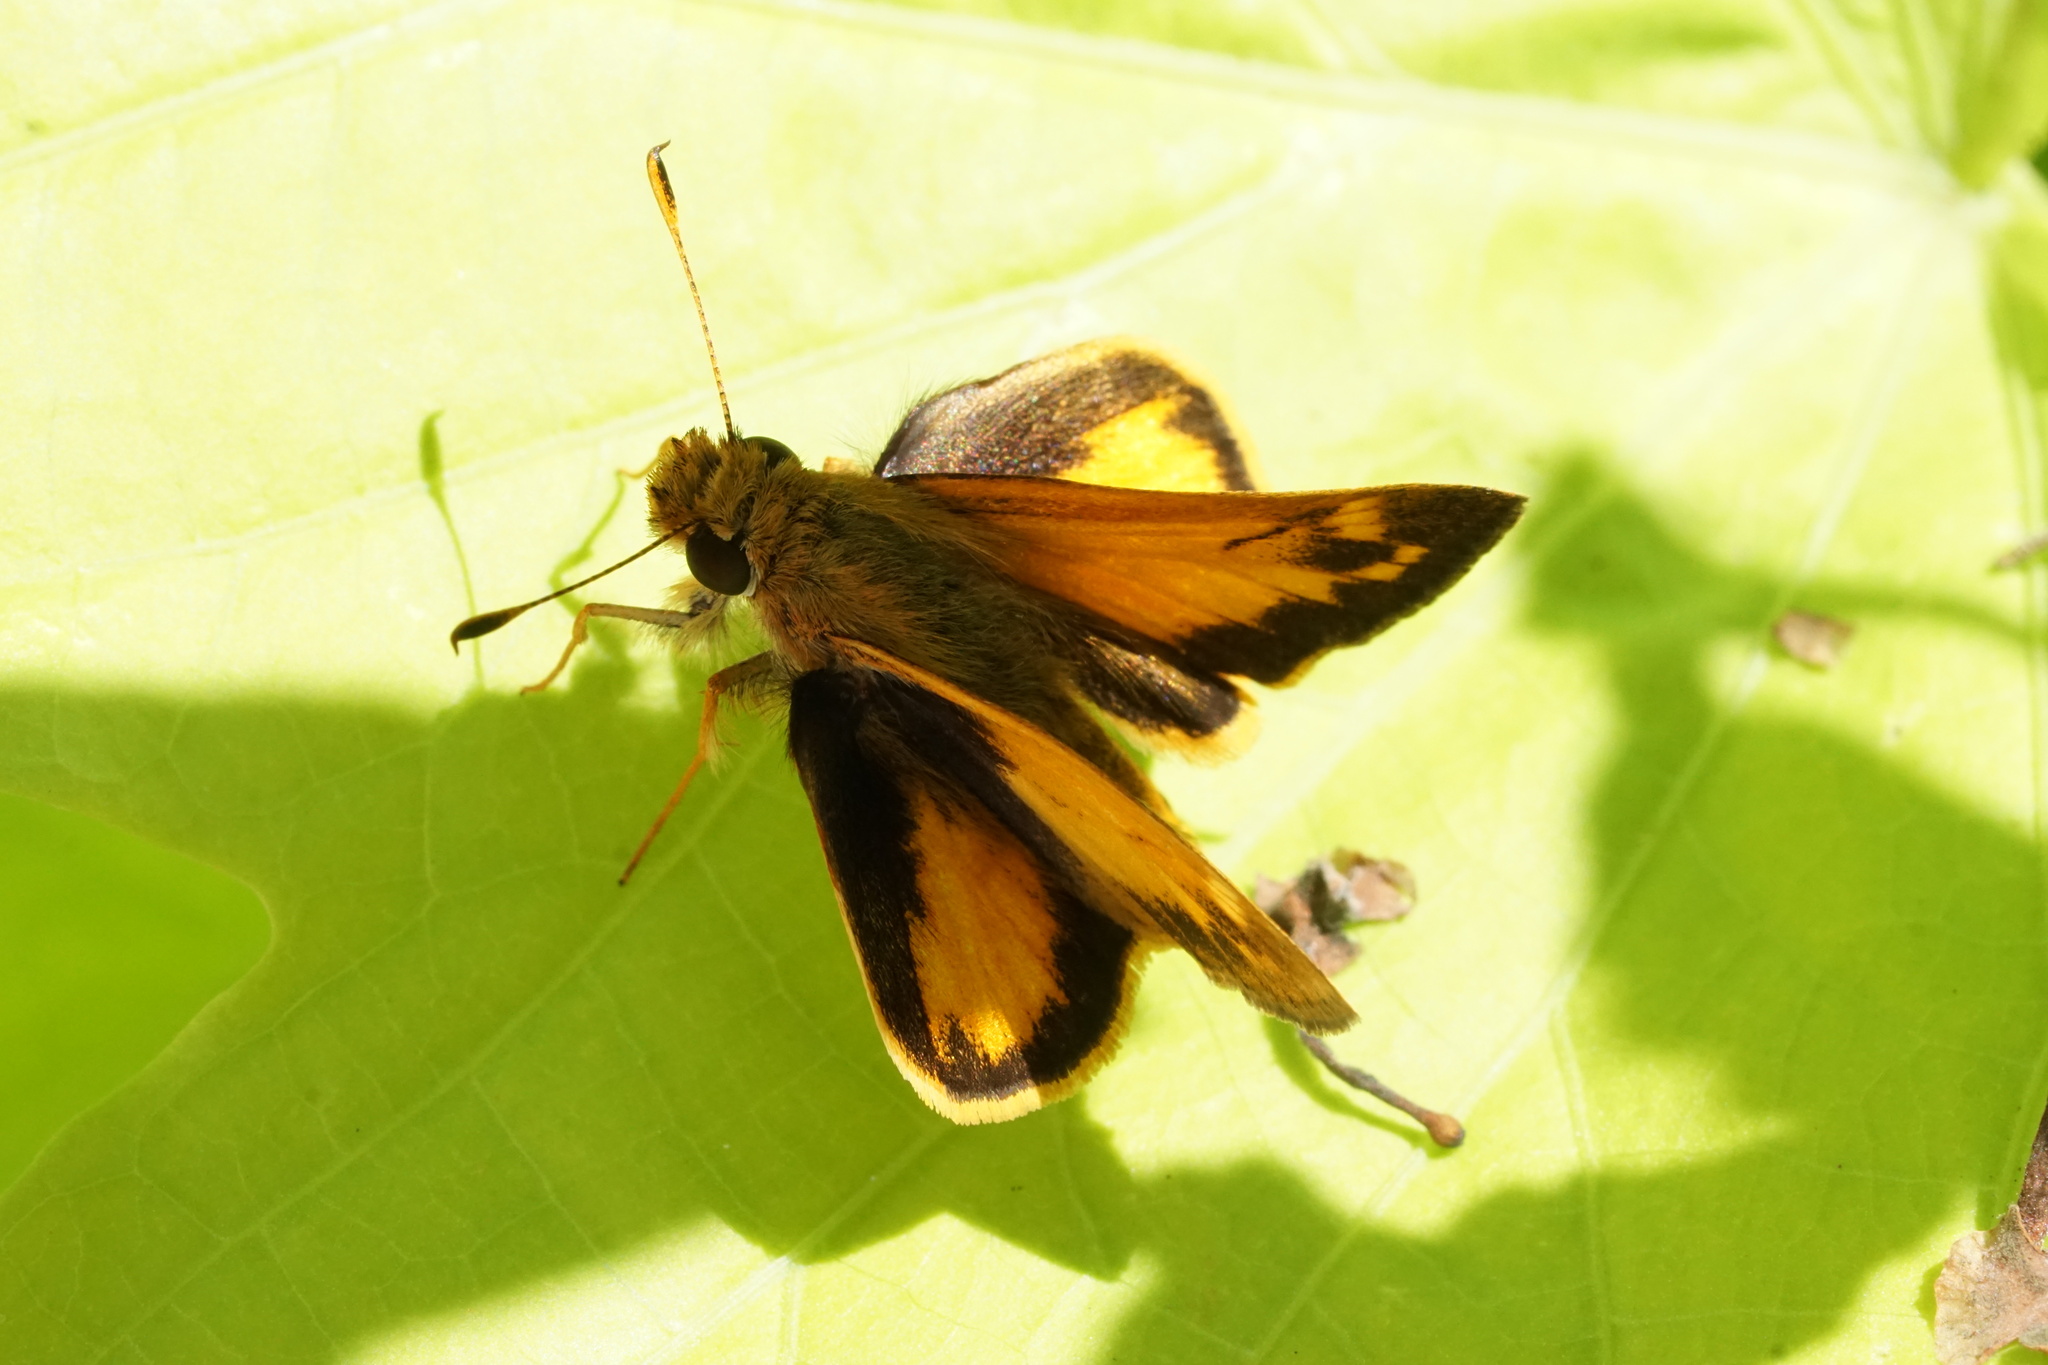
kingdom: Animalia
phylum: Arthropoda
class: Insecta
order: Lepidoptera
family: Hesperiidae
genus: Lon
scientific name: Lon zabulon
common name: Zabulon skipper
